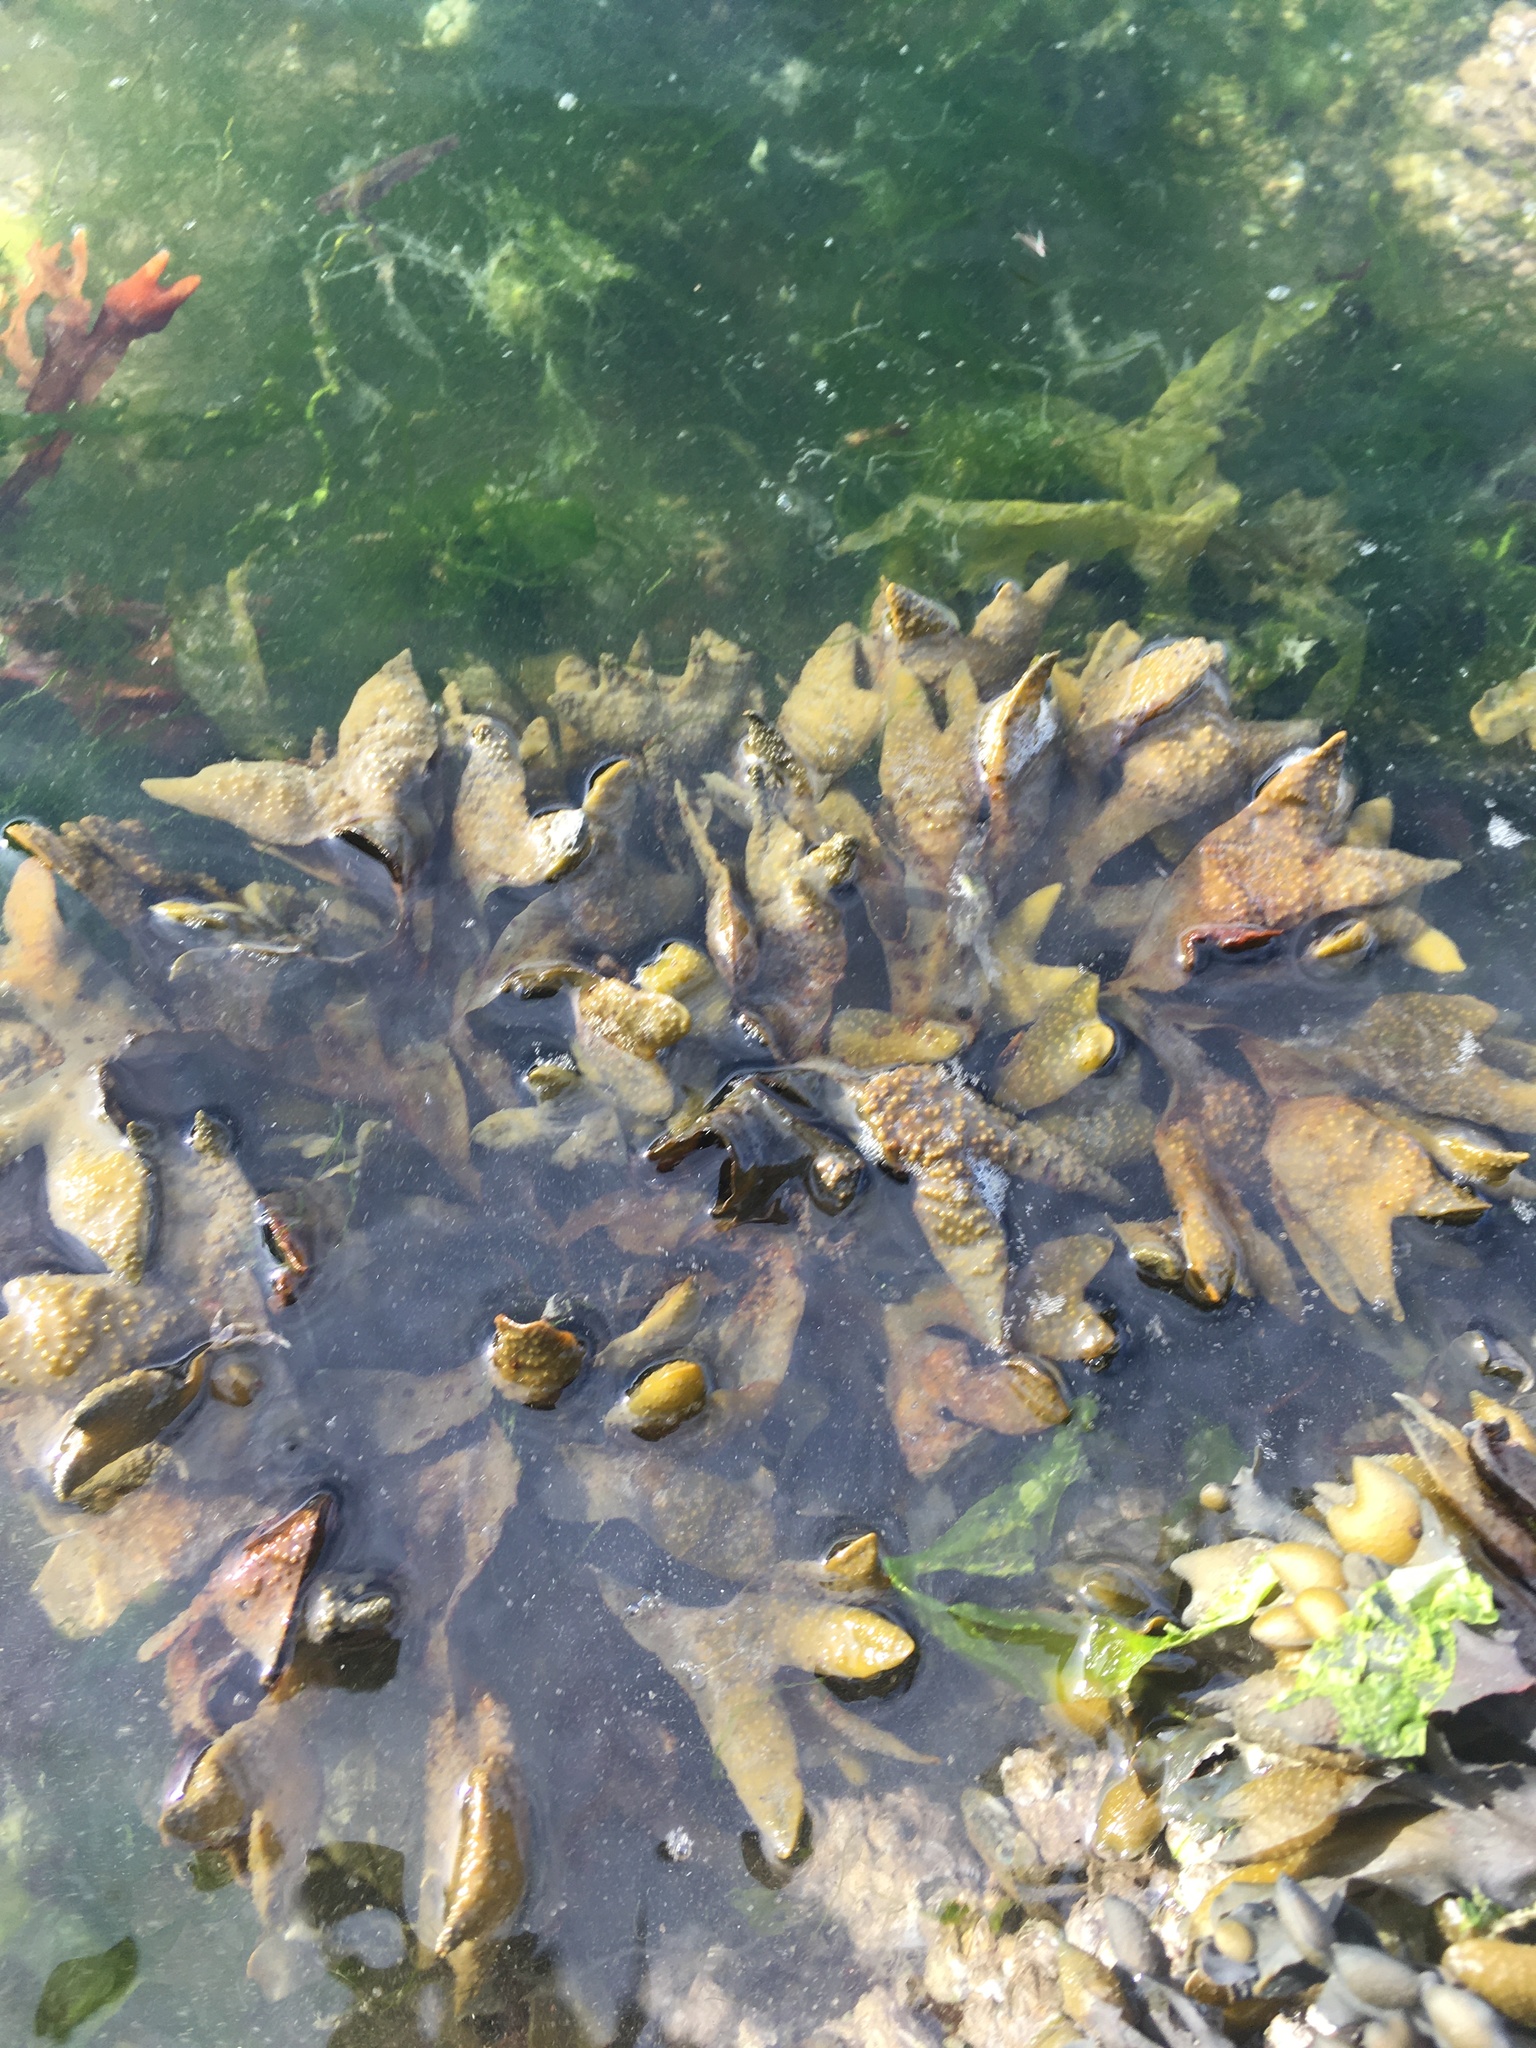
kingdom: Chromista
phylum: Ochrophyta
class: Phaeophyceae
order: Fucales
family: Fucaceae
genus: Fucus
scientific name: Fucus distichus
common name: Rockweed
